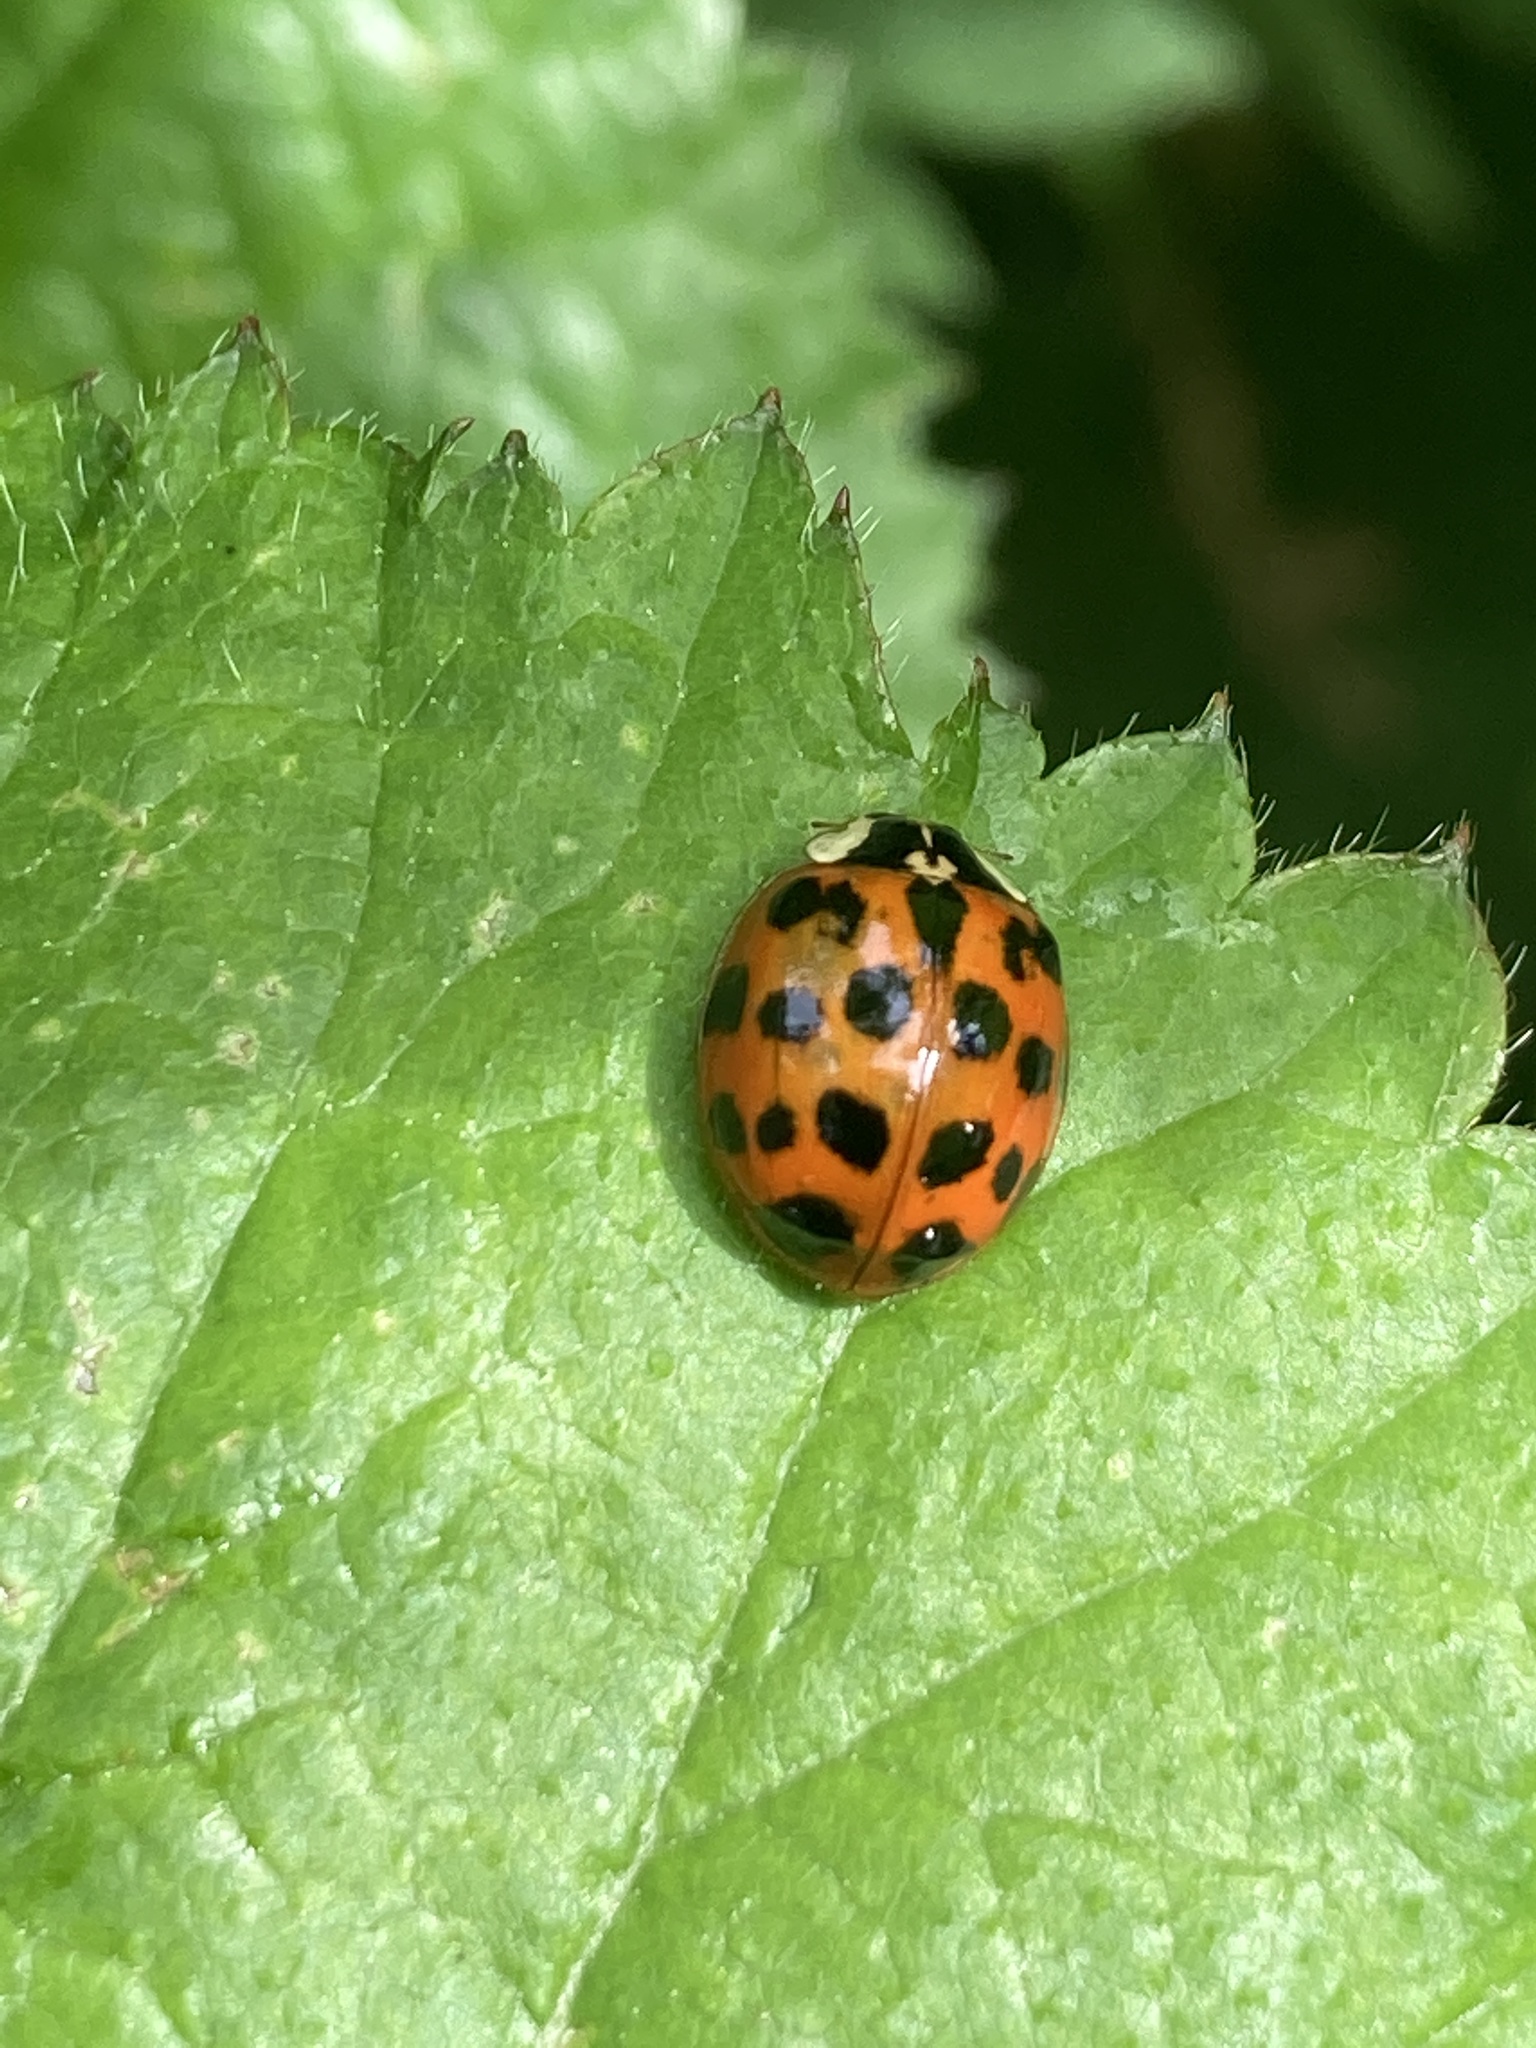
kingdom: Animalia
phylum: Arthropoda
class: Insecta
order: Coleoptera
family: Coccinellidae
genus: Harmonia
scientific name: Harmonia axyridis
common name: Harlequin ladybird
